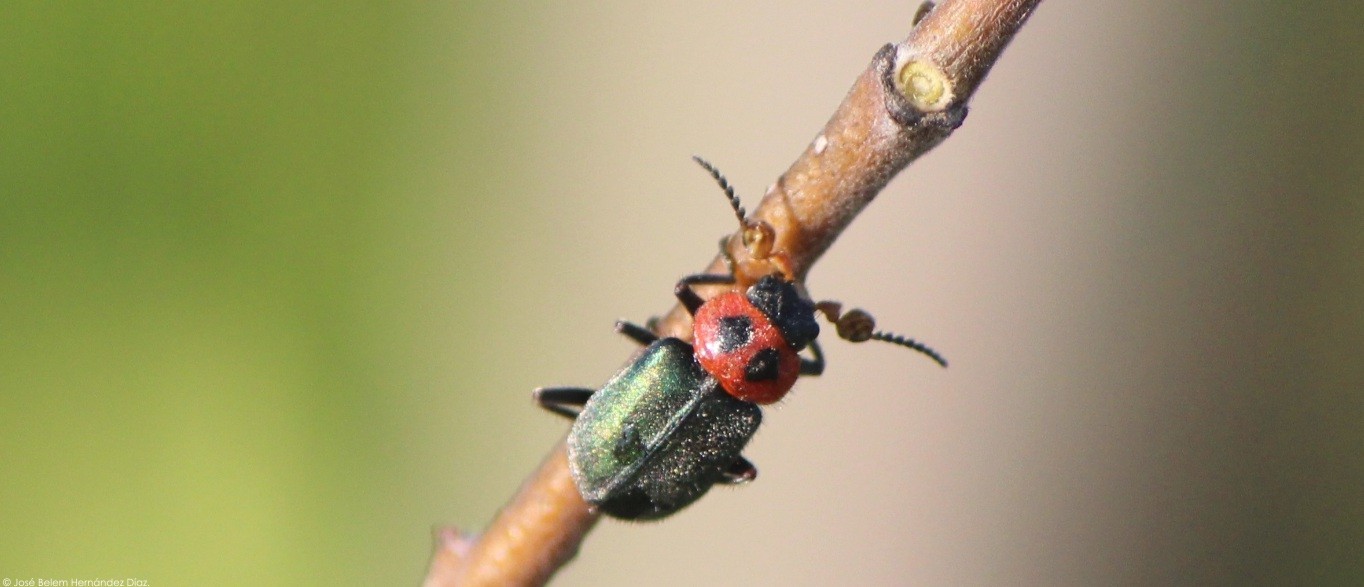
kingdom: Animalia
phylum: Arthropoda
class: Insecta
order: Coleoptera
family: Melyridae
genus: Collops
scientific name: Collops bipunctatus
